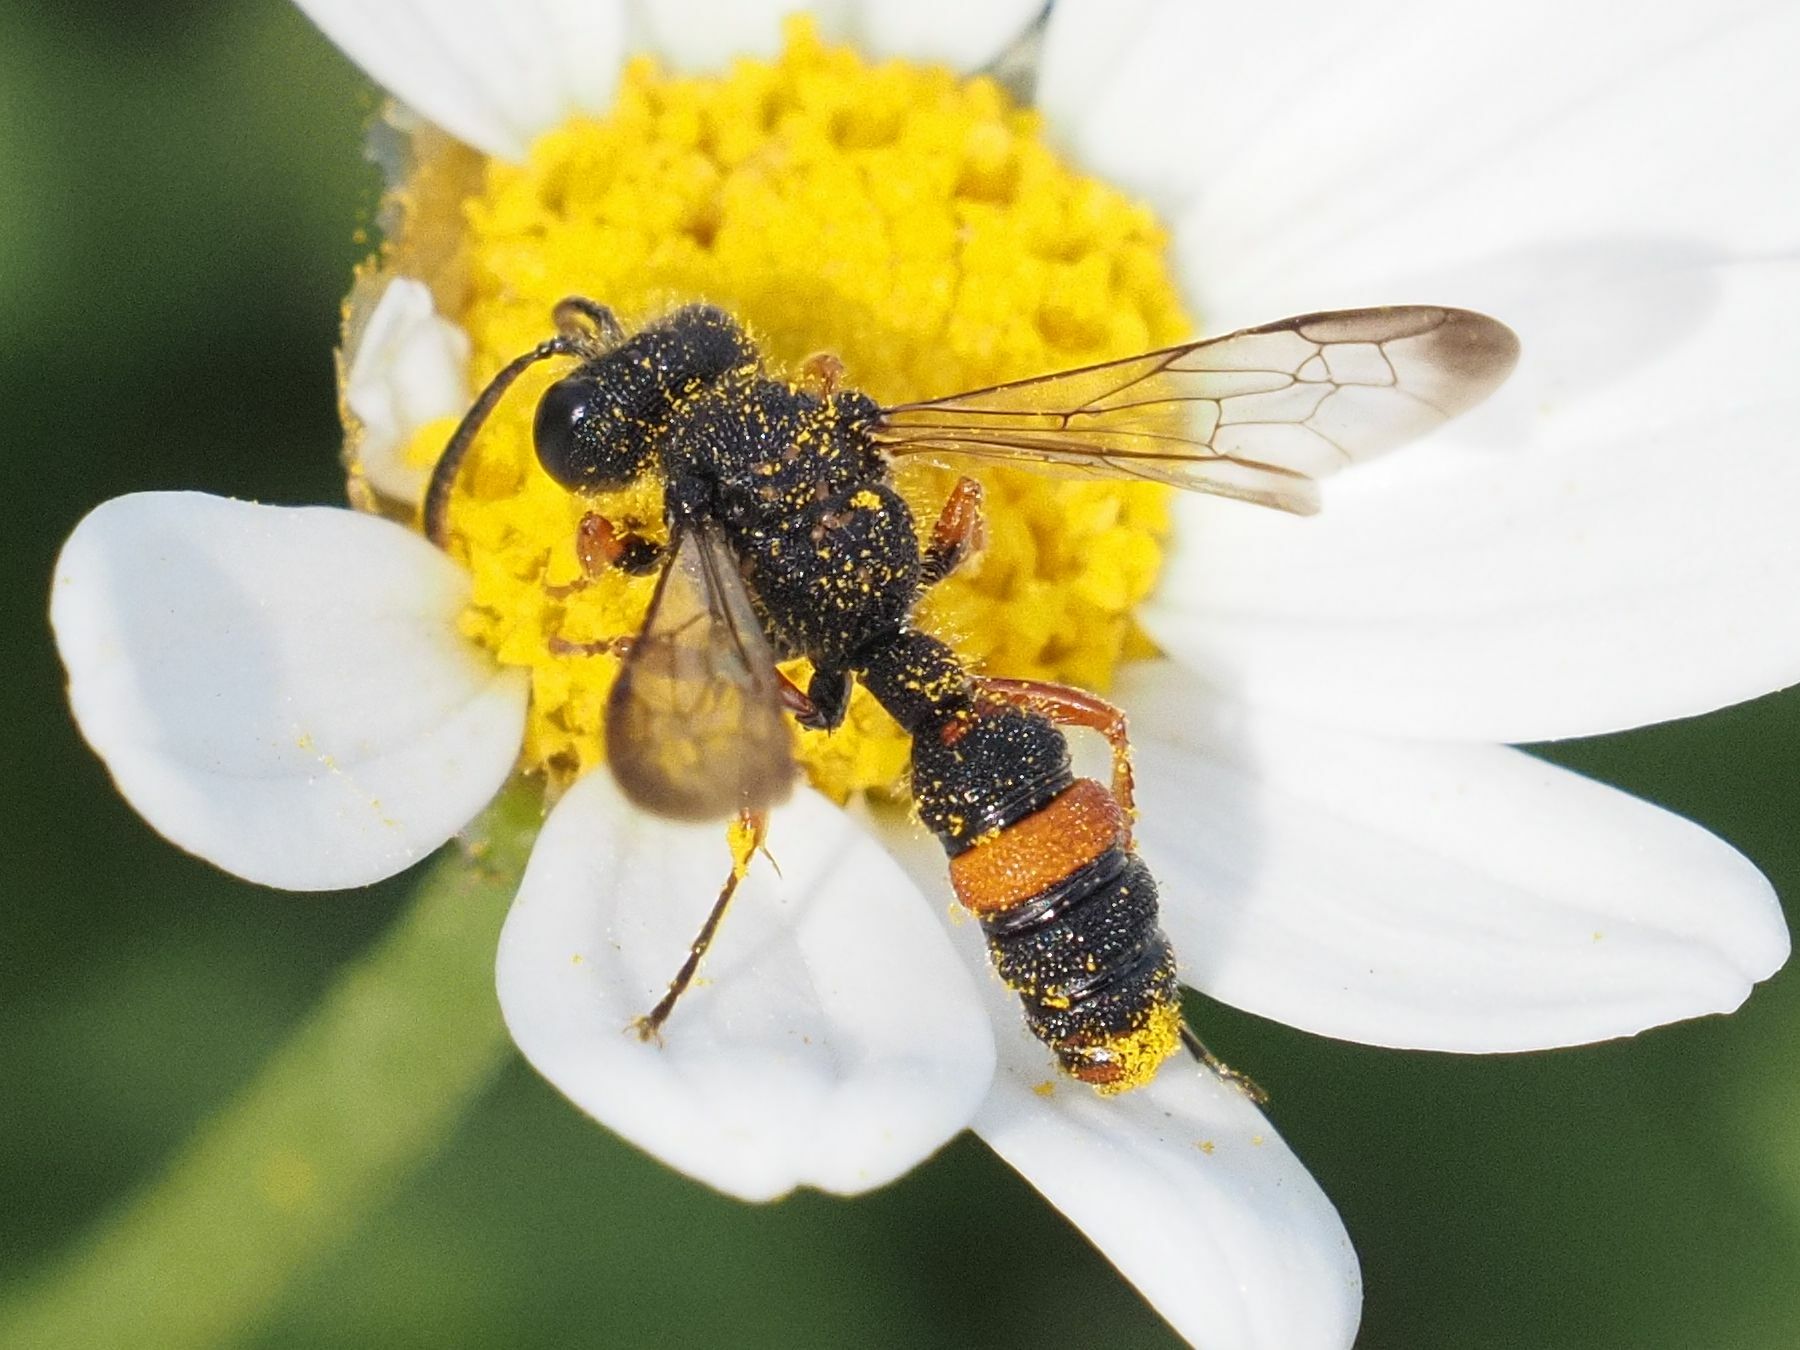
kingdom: Animalia
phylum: Arthropoda
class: Insecta
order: Hymenoptera
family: Crabronidae
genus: Cerceris
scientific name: Cerceris concinna
